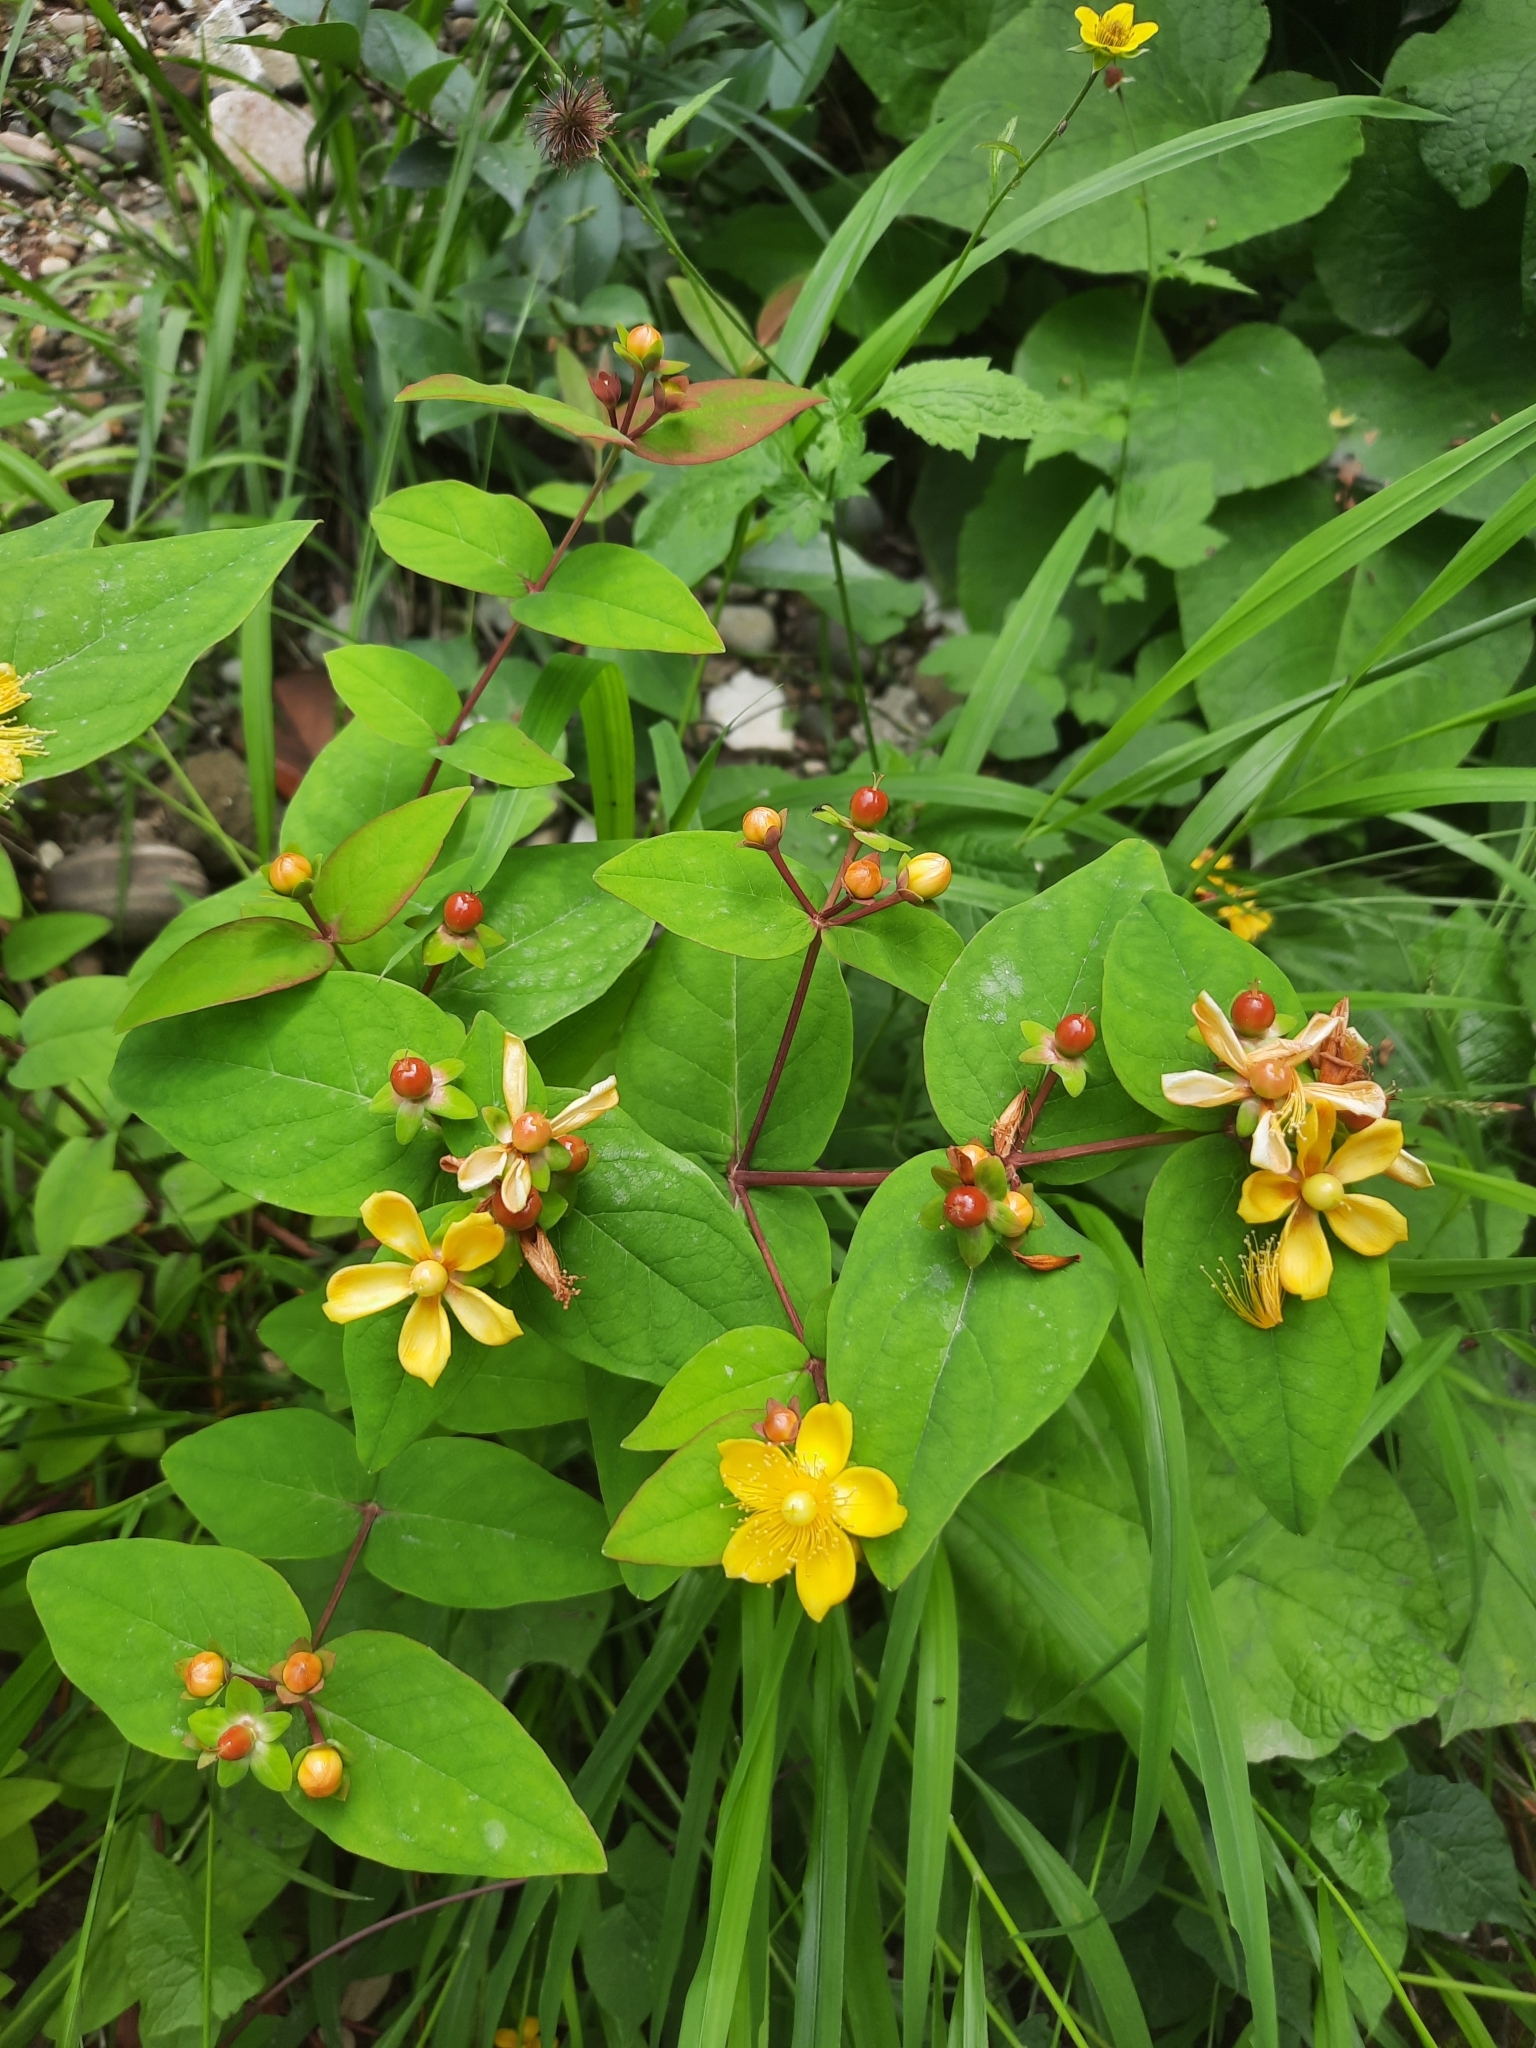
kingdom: Plantae
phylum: Tracheophyta
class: Magnoliopsida
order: Malpighiales
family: Hypericaceae
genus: Hypericum
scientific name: Hypericum androsaemum
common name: Sweet-amber
